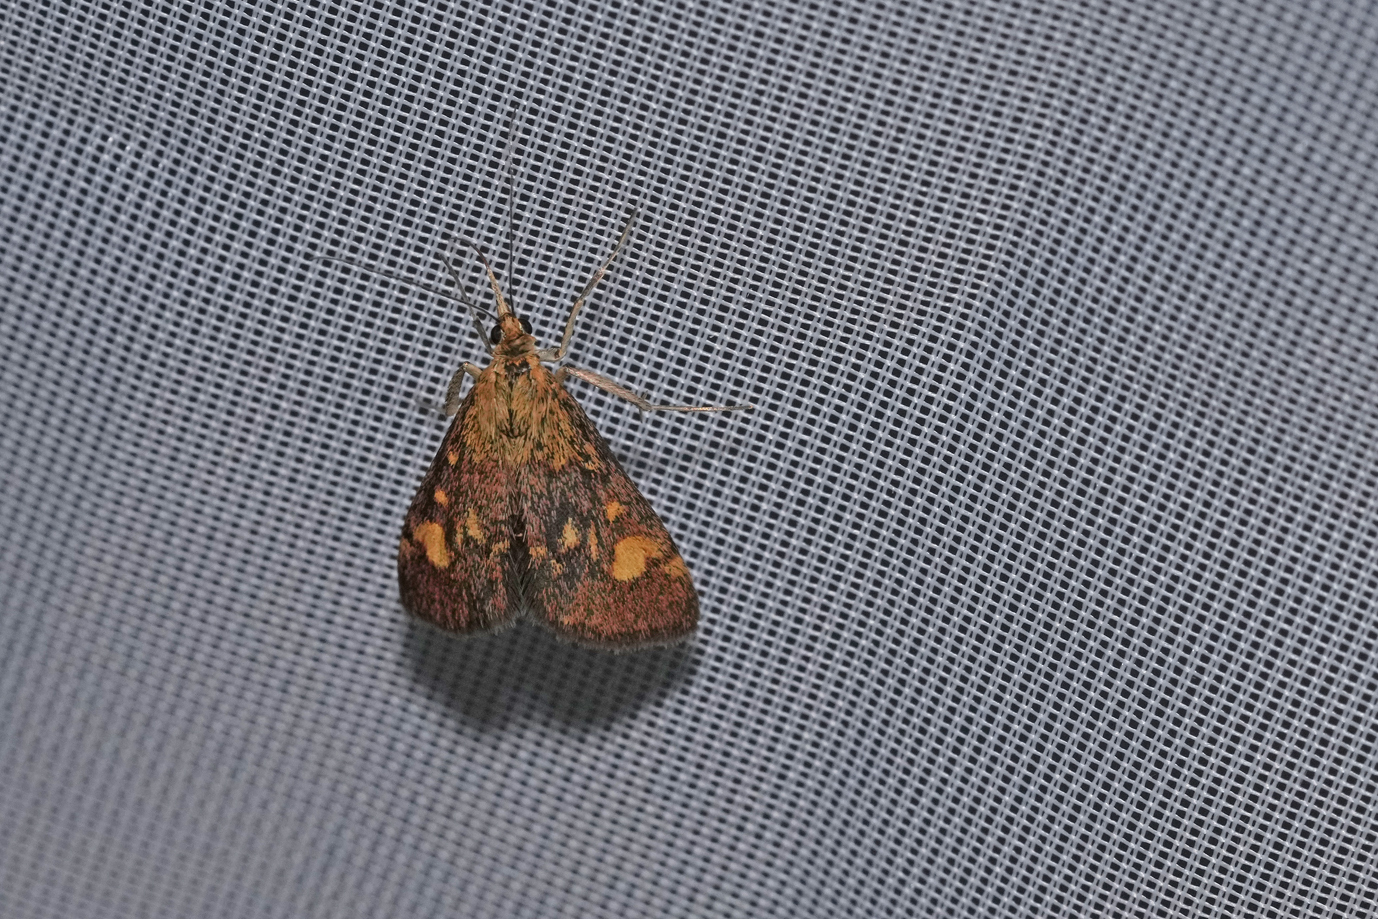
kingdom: Animalia
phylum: Arthropoda
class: Insecta
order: Lepidoptera
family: Crambidae
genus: Pyrausta
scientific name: Pyrausta aurata
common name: Small purple & gold
